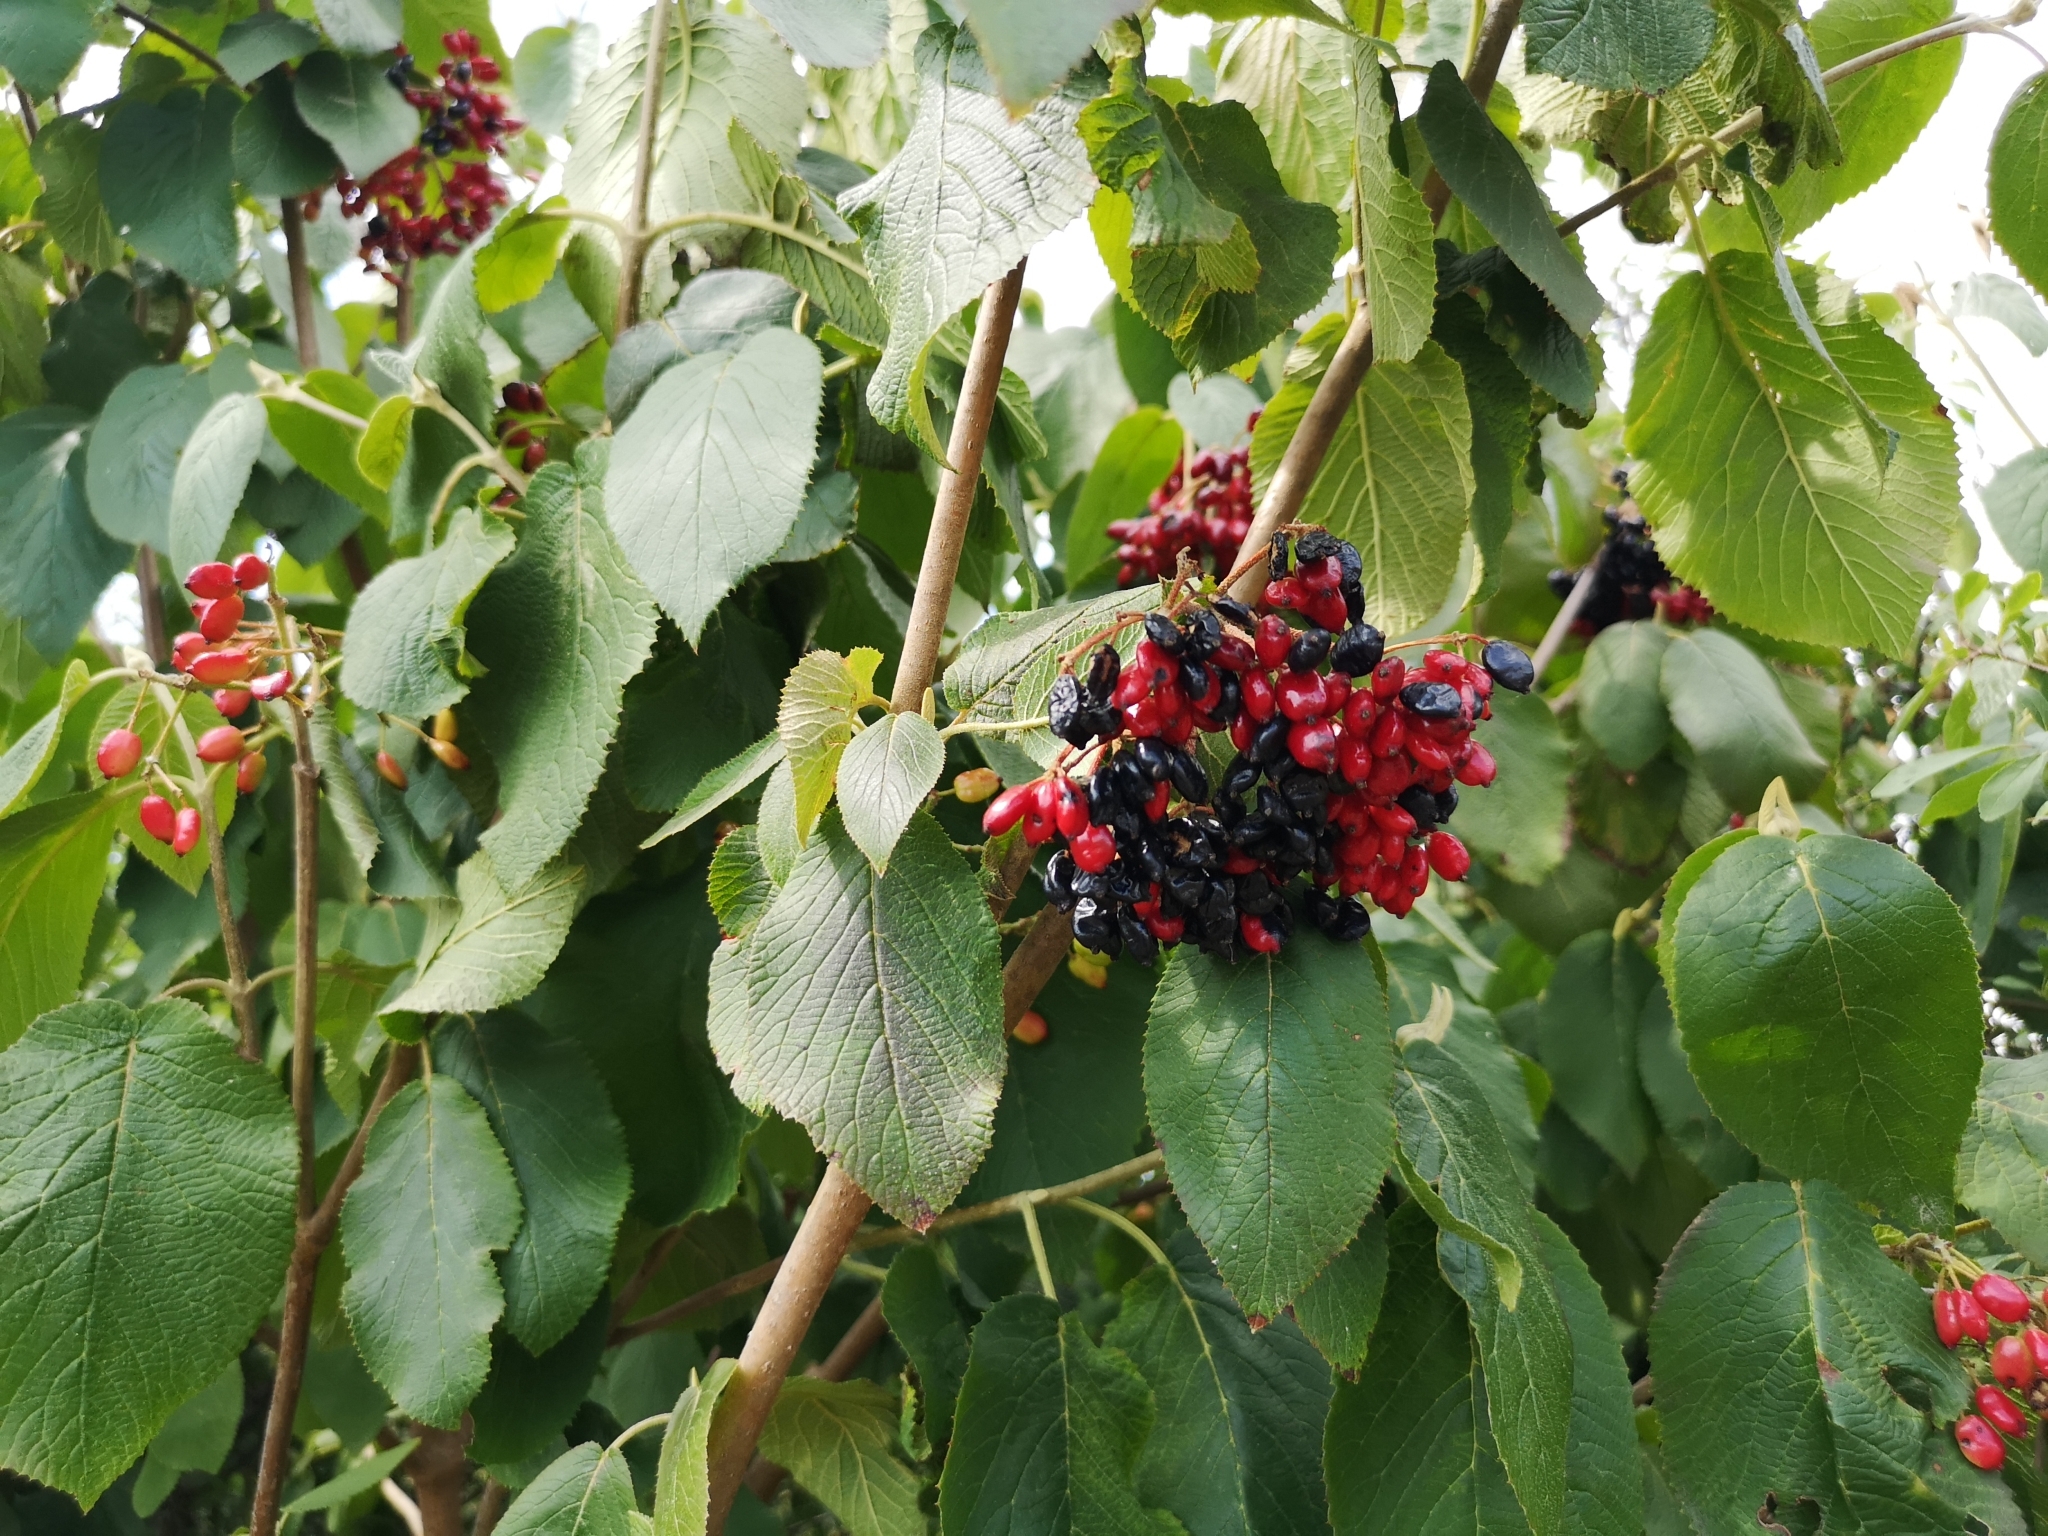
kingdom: Plantae
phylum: Tracheophyta
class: Magnoliopsida
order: Dipsacales
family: Viburnaceae
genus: Viburnum
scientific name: Viburnum lantana
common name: Wayfaring tree
